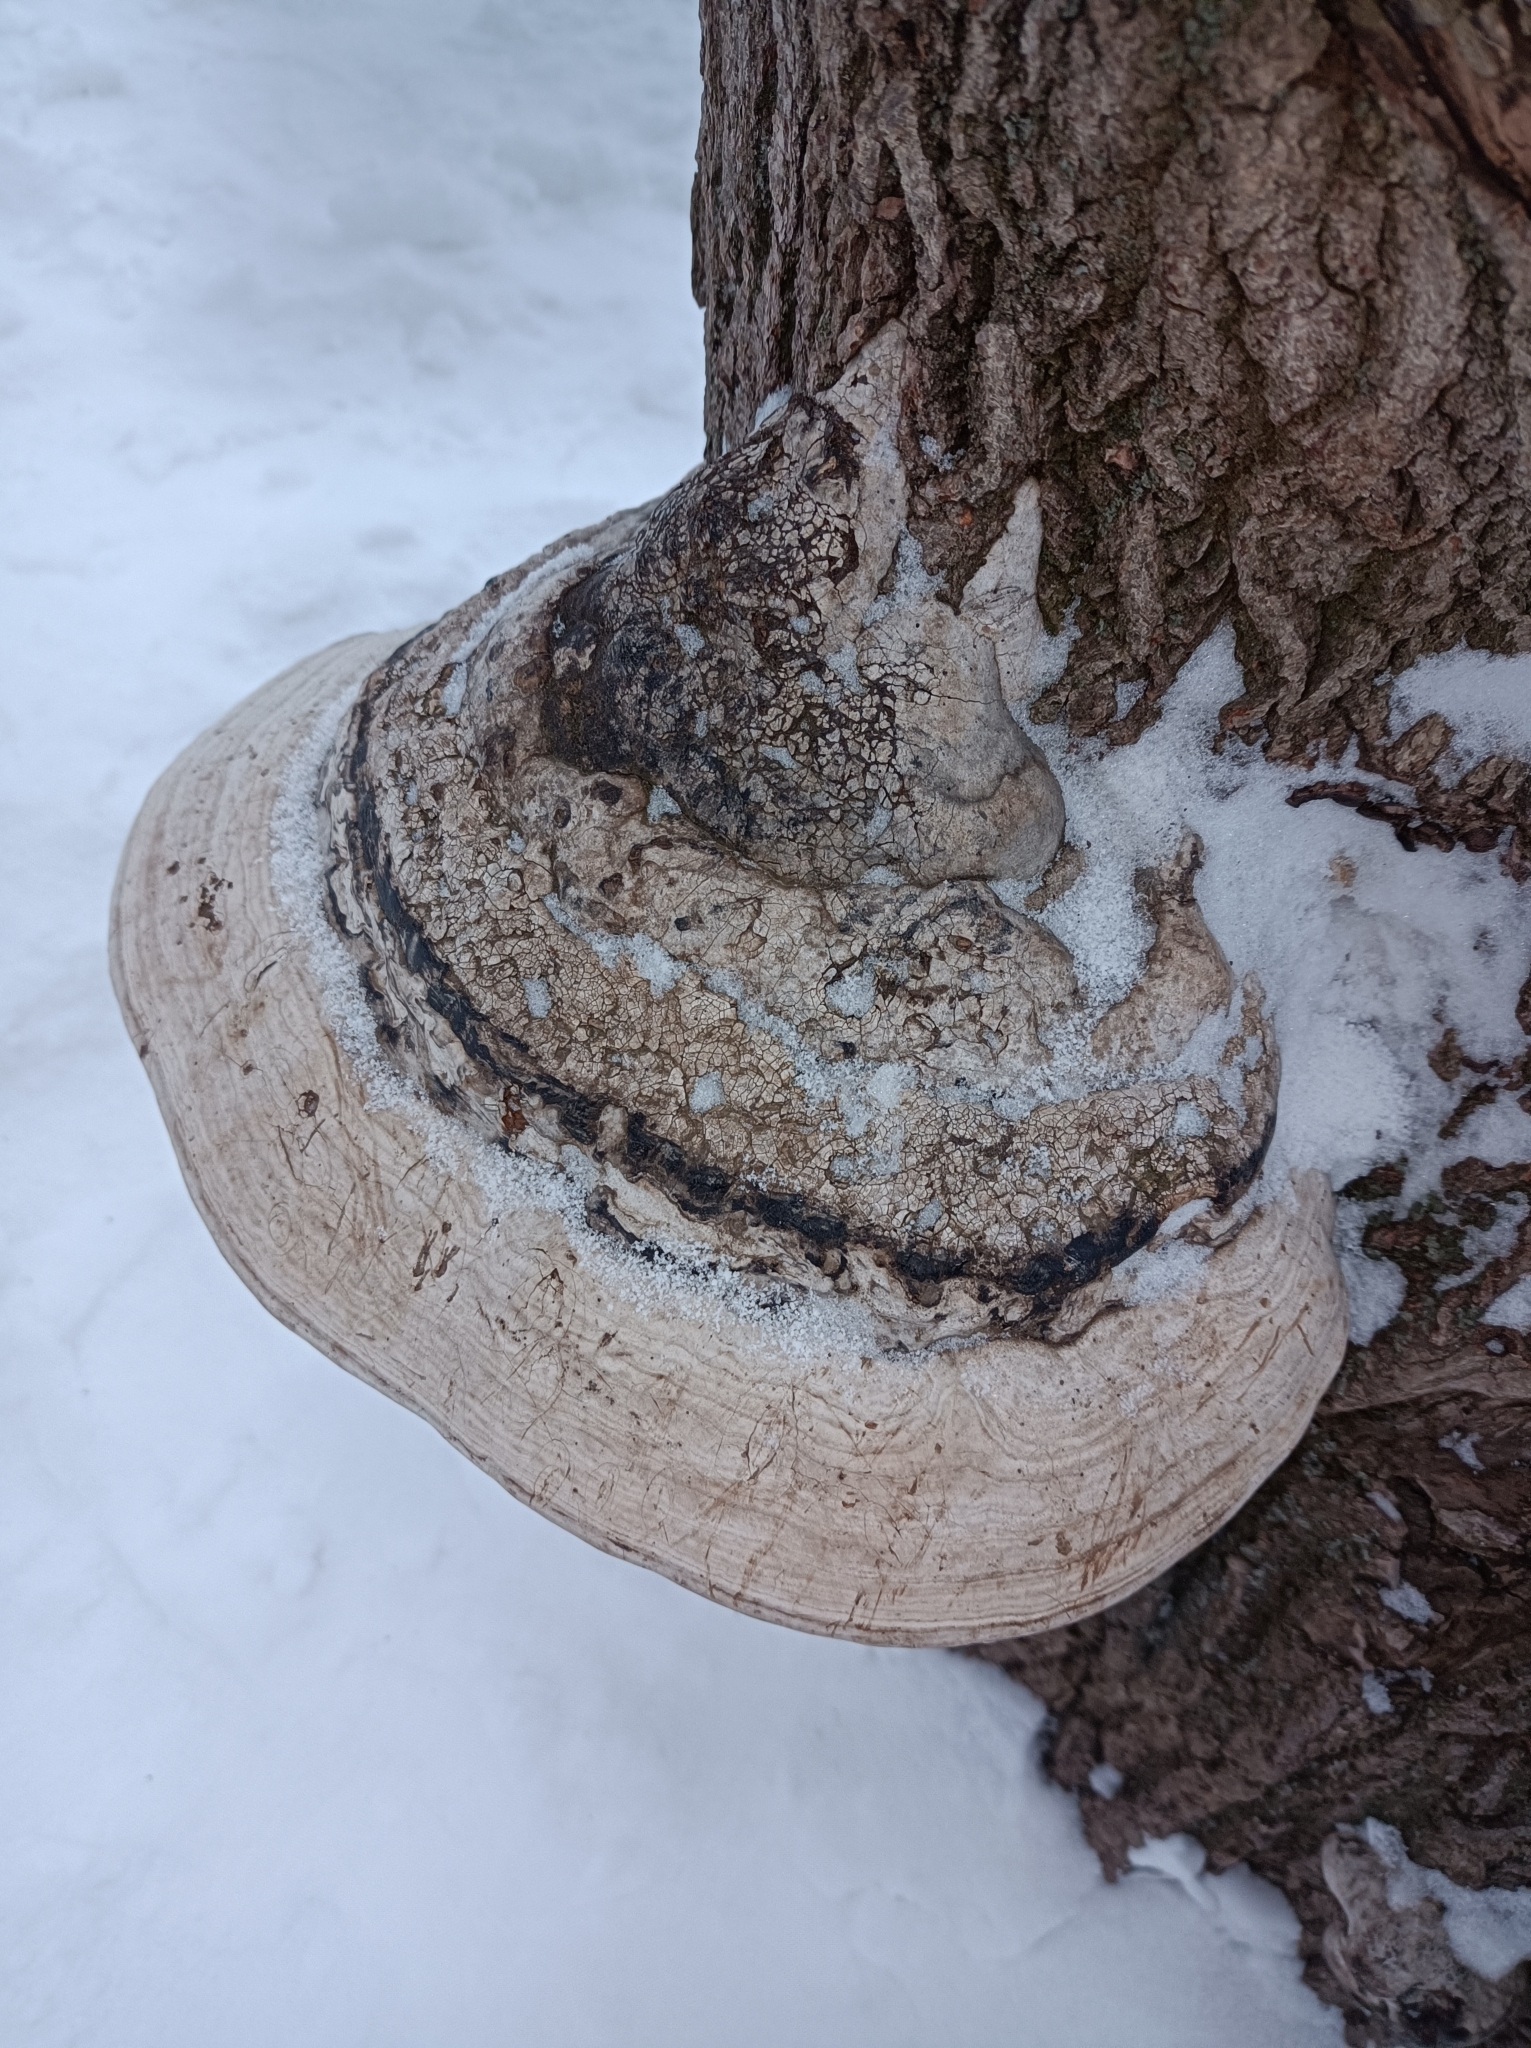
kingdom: Fungi
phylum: Basidiomycota
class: Agaricomycetes
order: Polyporales
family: Polyporaceae
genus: Fomes
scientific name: Fomes fomentarius
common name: Hoof fungus
